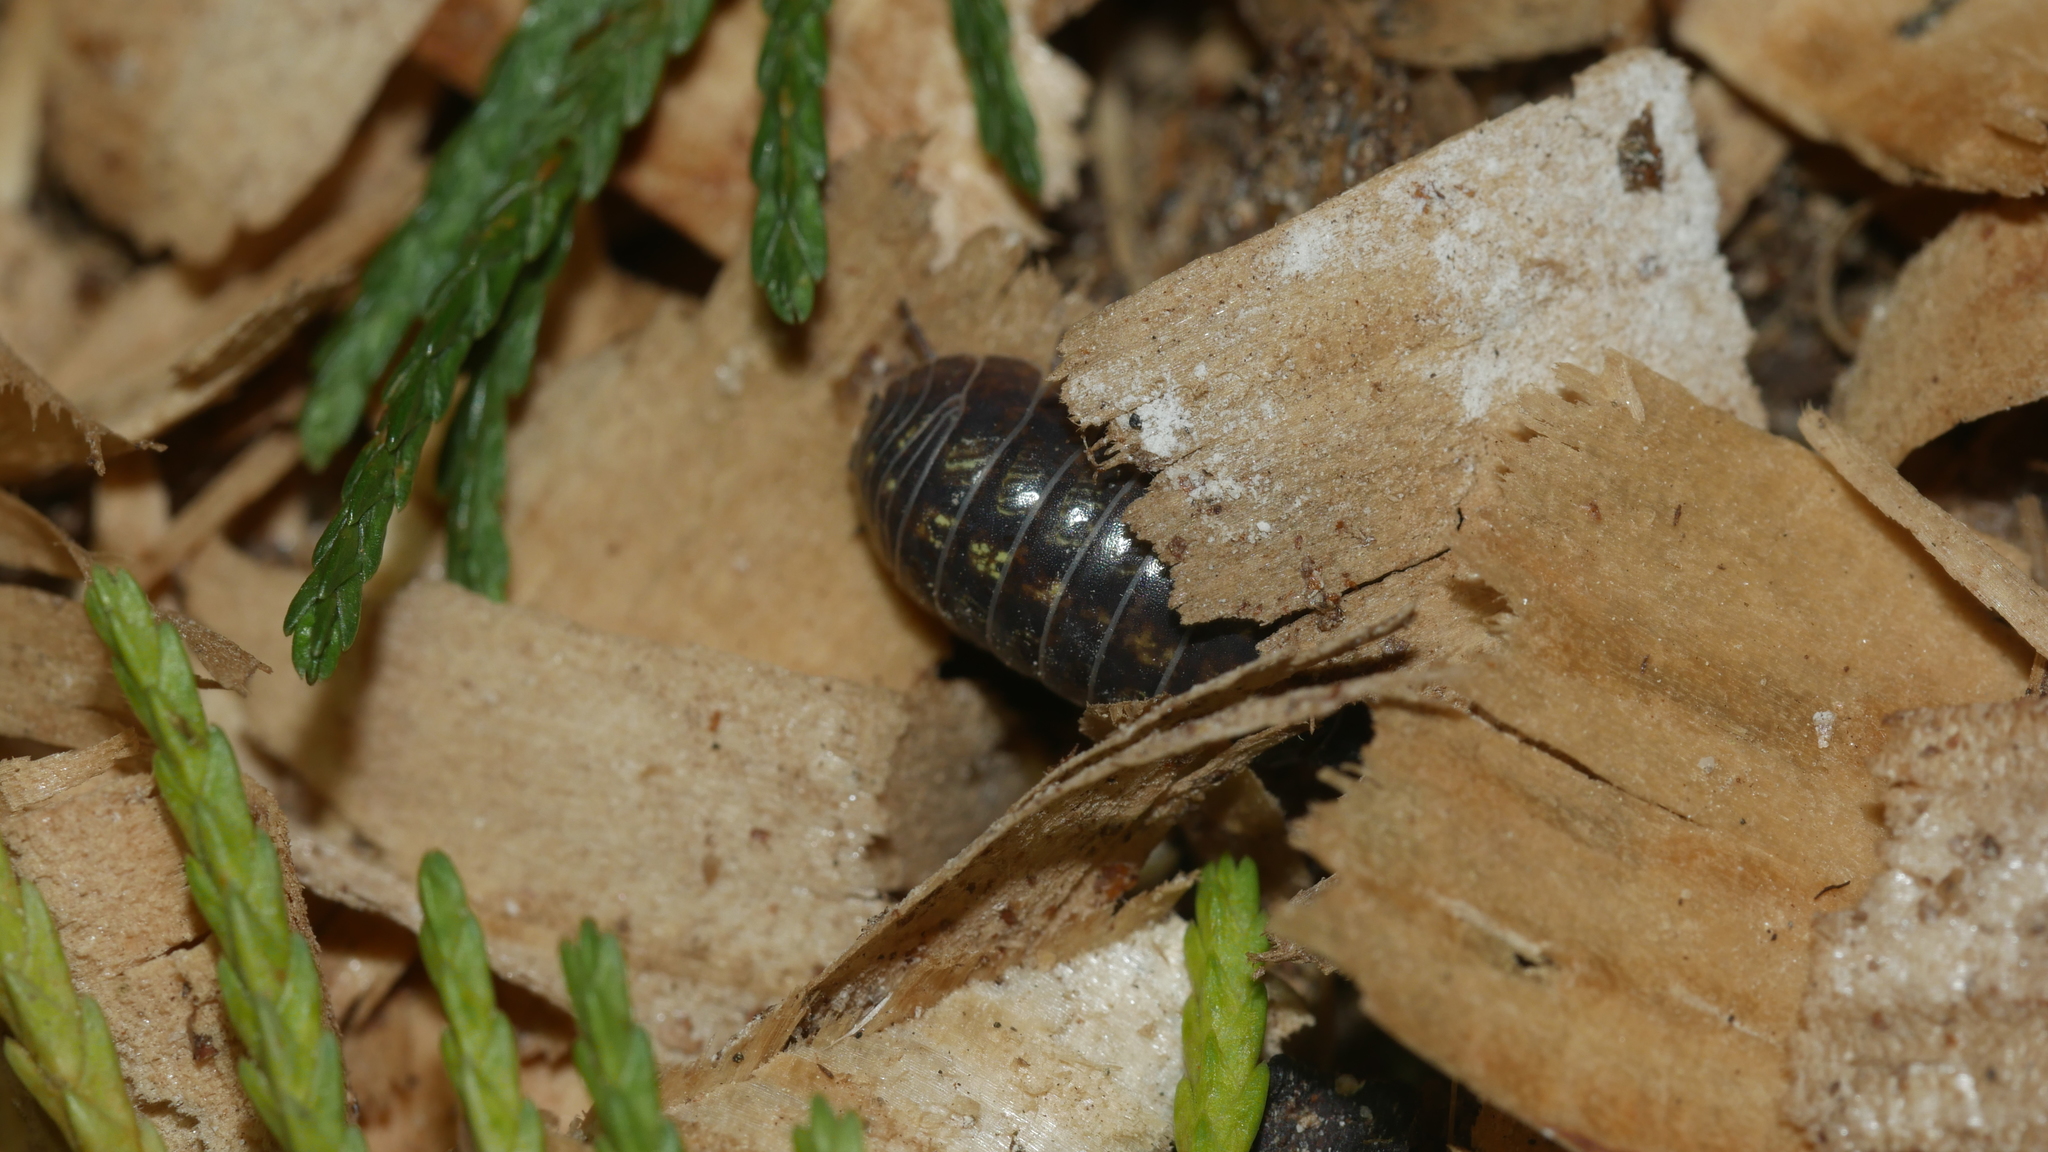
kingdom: Animalia
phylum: Arthropoda
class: Malacostraca
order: Isopoda
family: Armadillidiidae
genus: Armadillidium
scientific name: Armadillidium vulgare
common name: Common pill woodlouse
